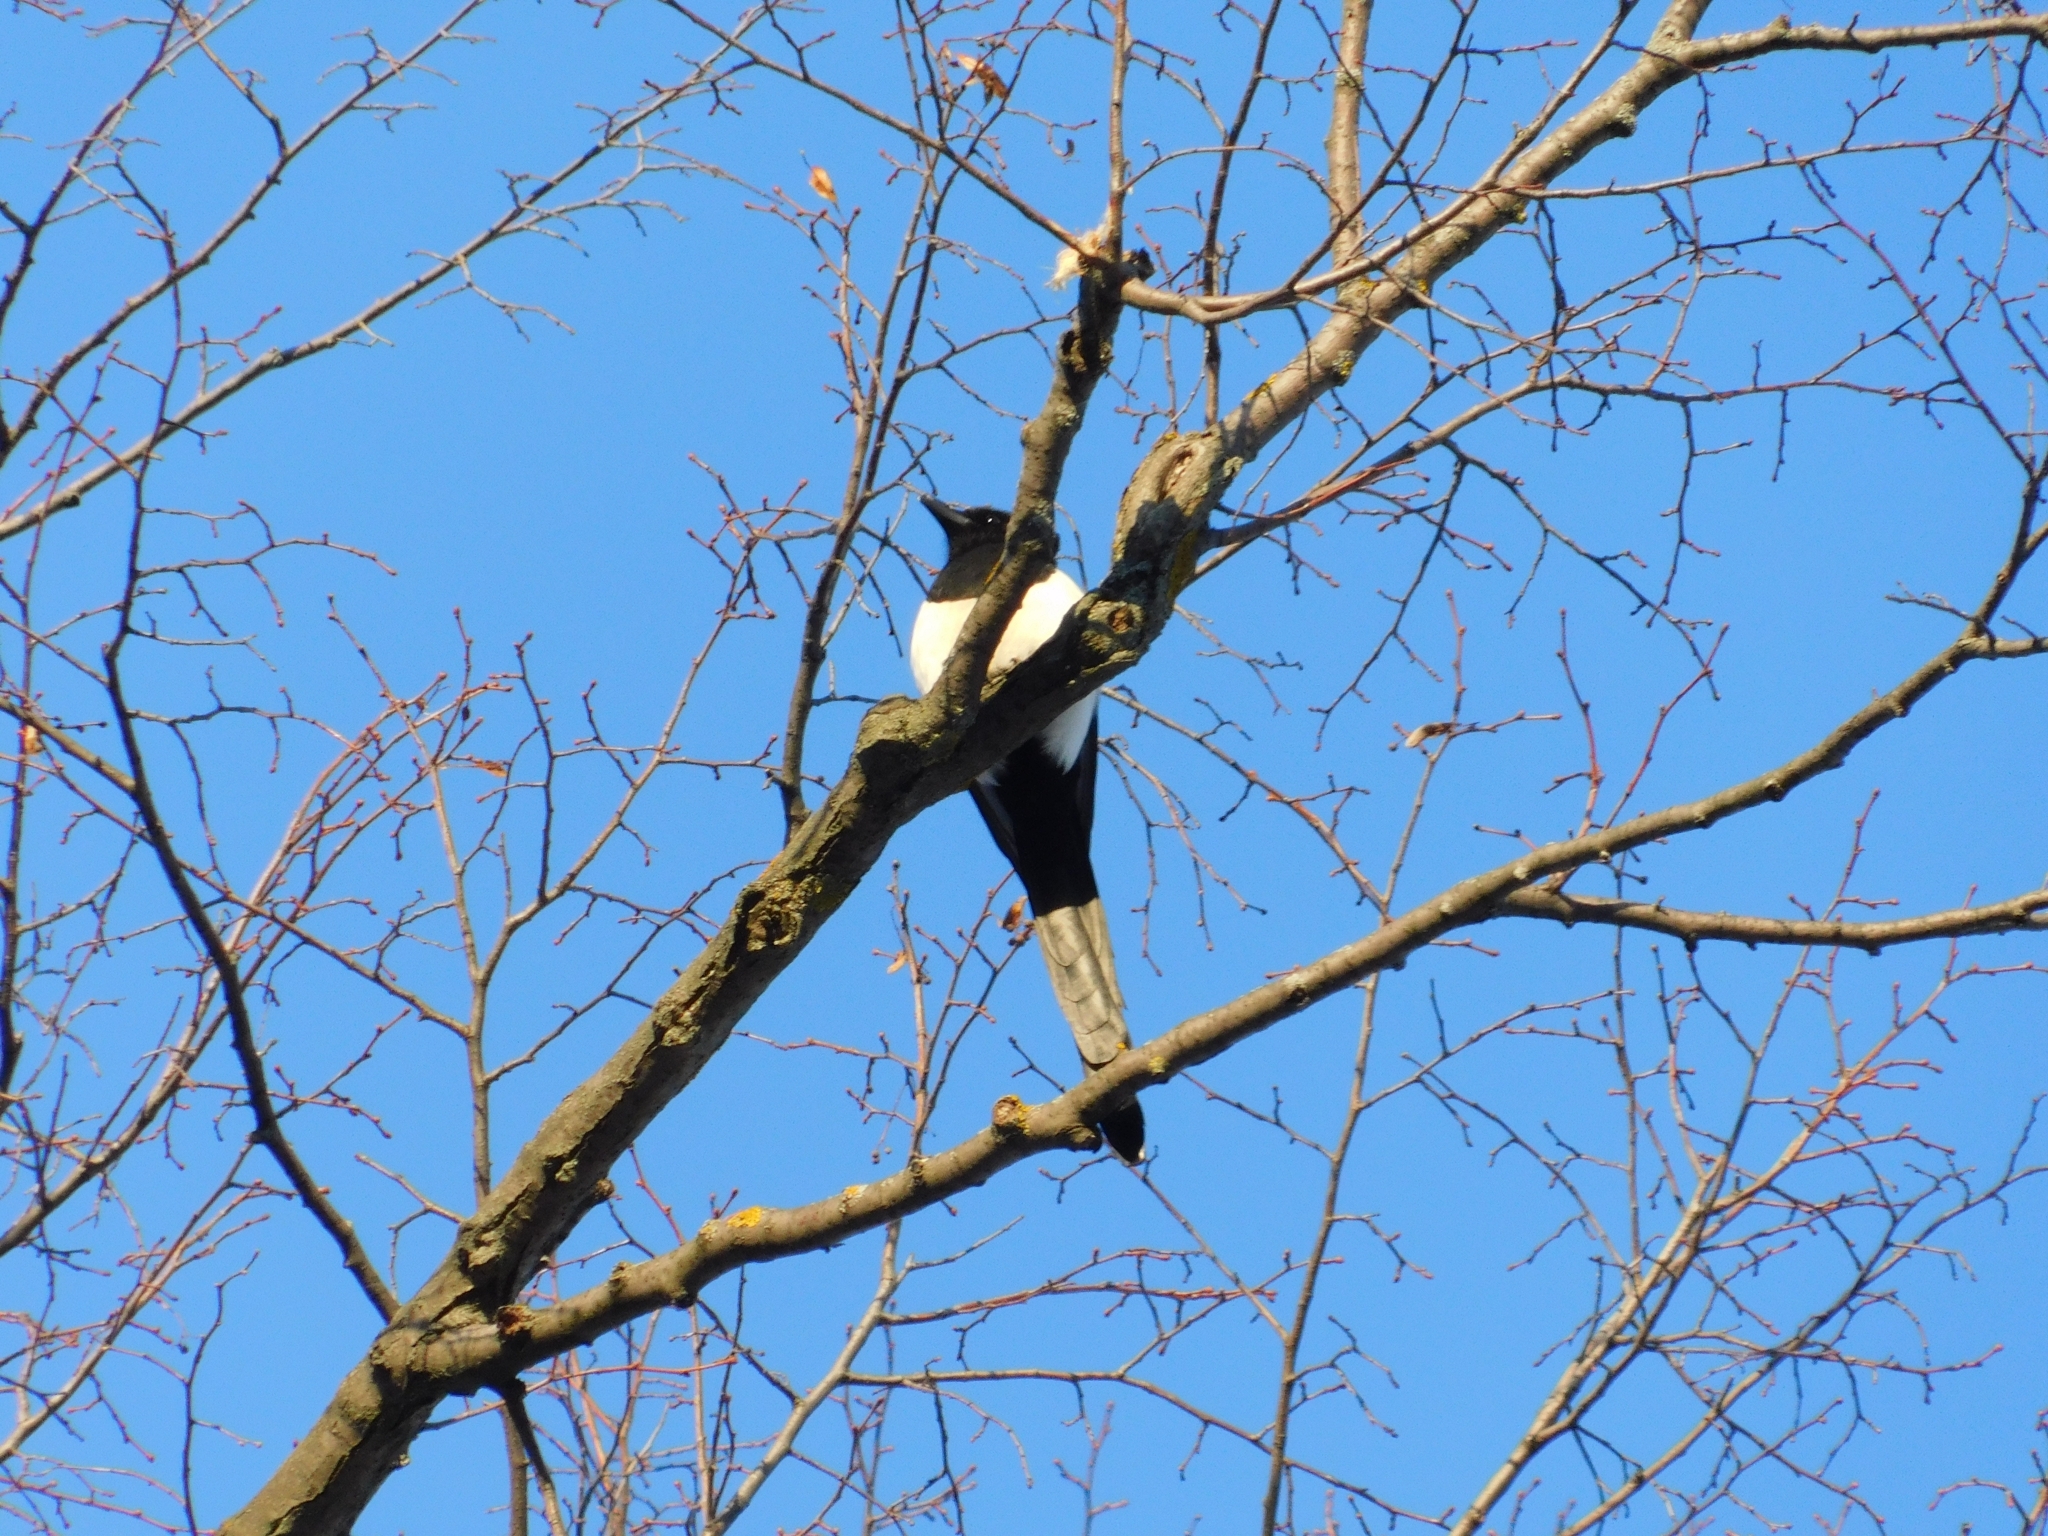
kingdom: Animalia
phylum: Chordata
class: Aves
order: Passeriformes
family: Corvidae
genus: Pica
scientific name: Pica pica
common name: Eurasian magpie
